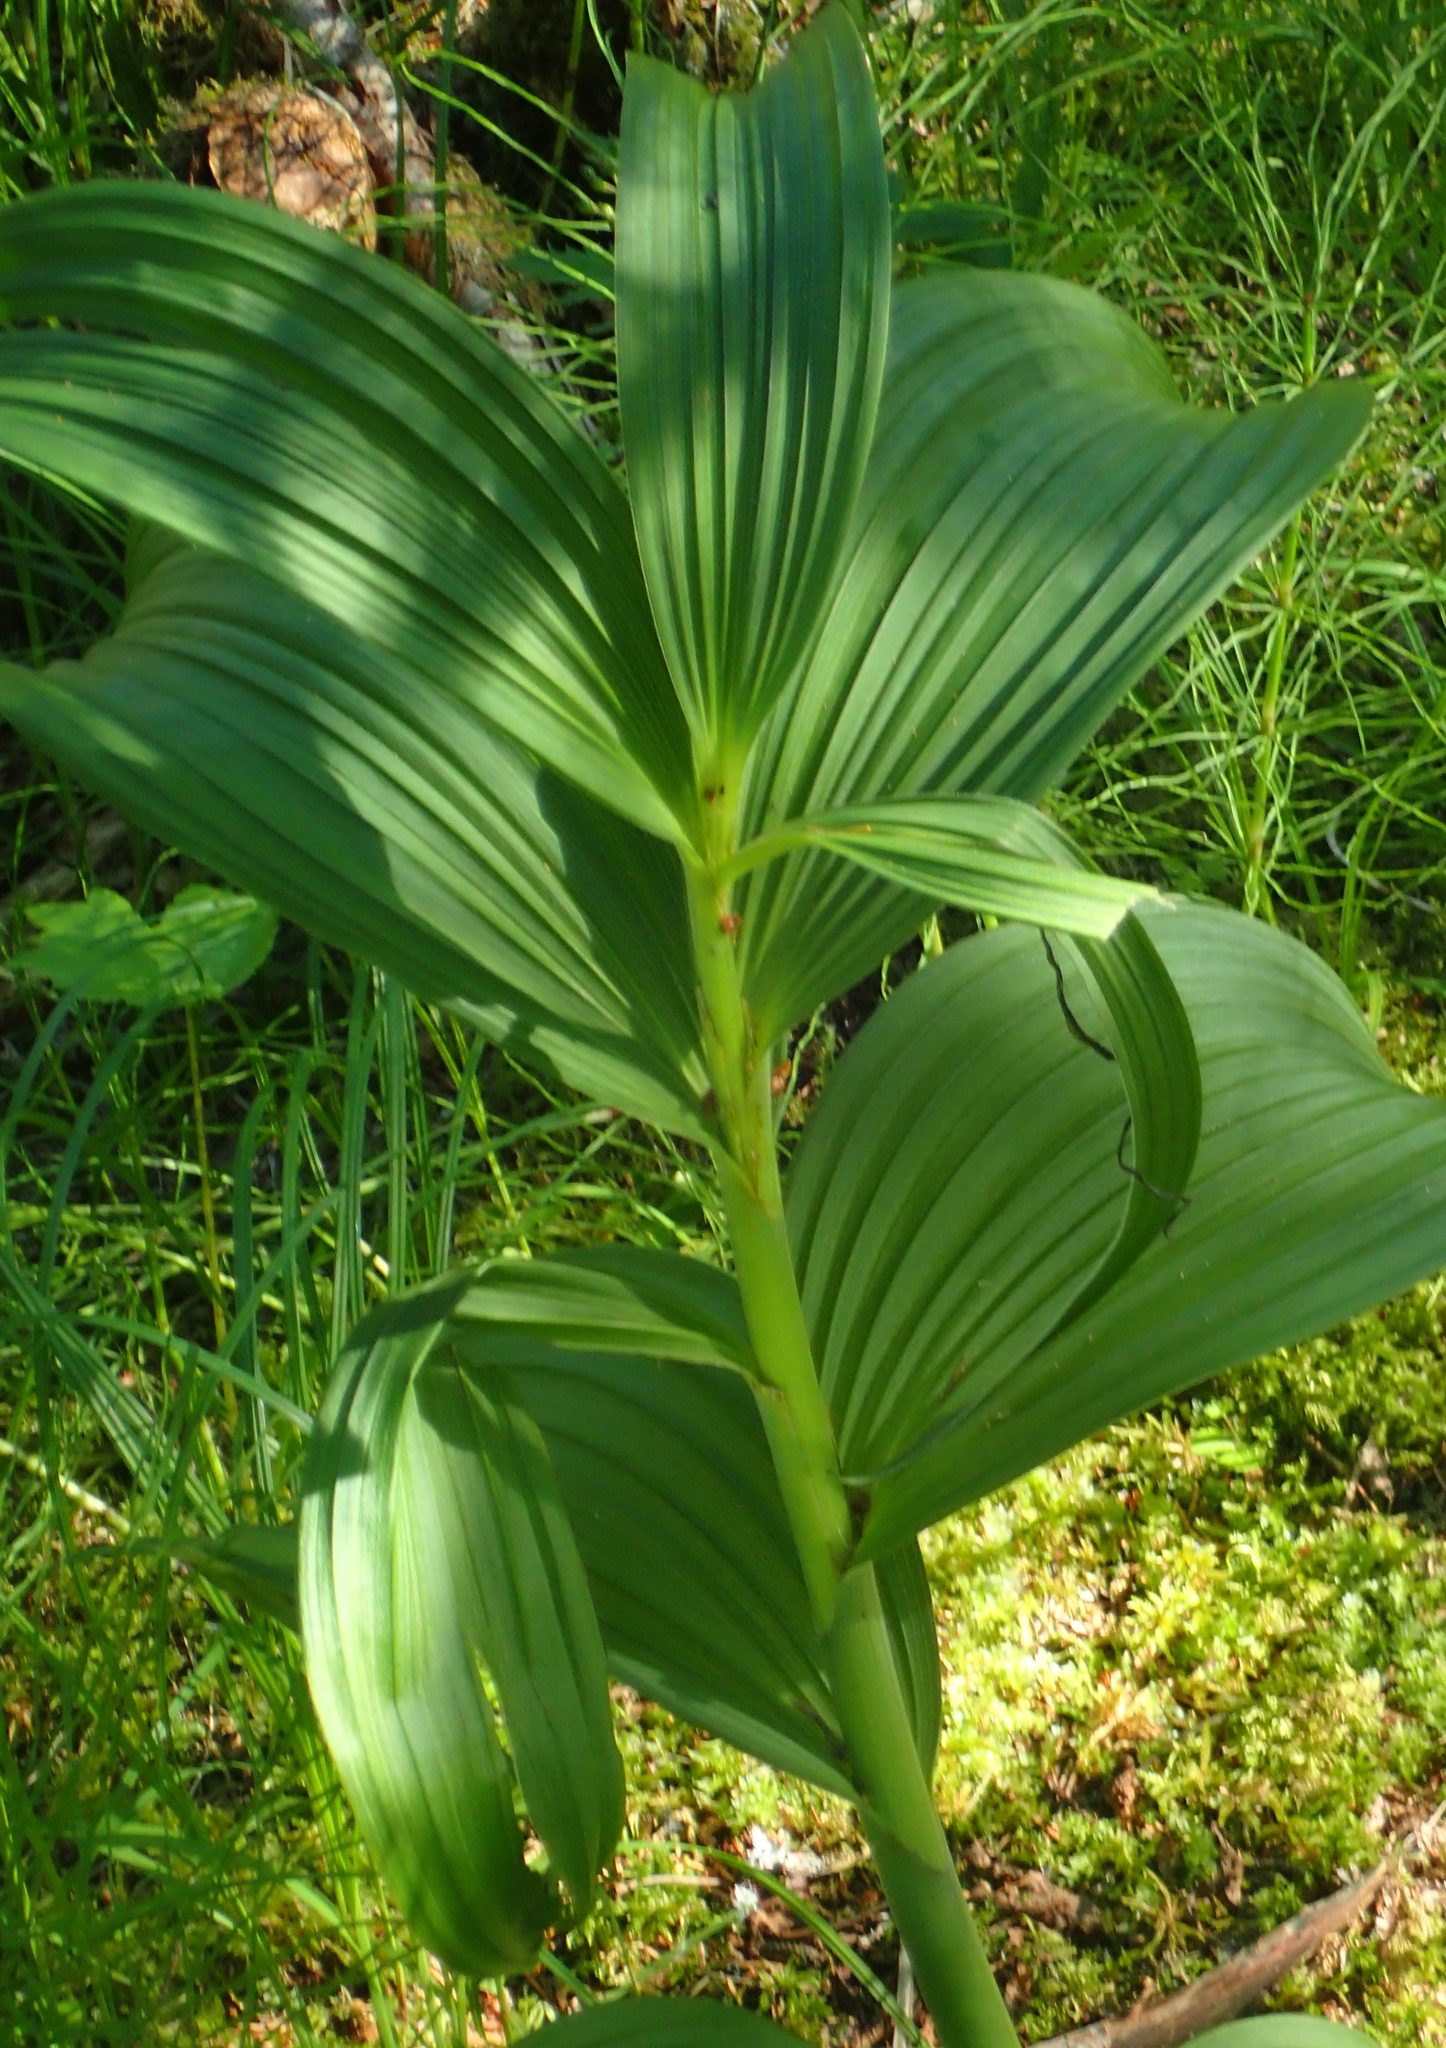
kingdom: Plantae
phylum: Tracheophyta
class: Liliopsida
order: Liliales
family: Melanthiaceae
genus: Veratrum
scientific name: Veratrum viride
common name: American false hellebore
